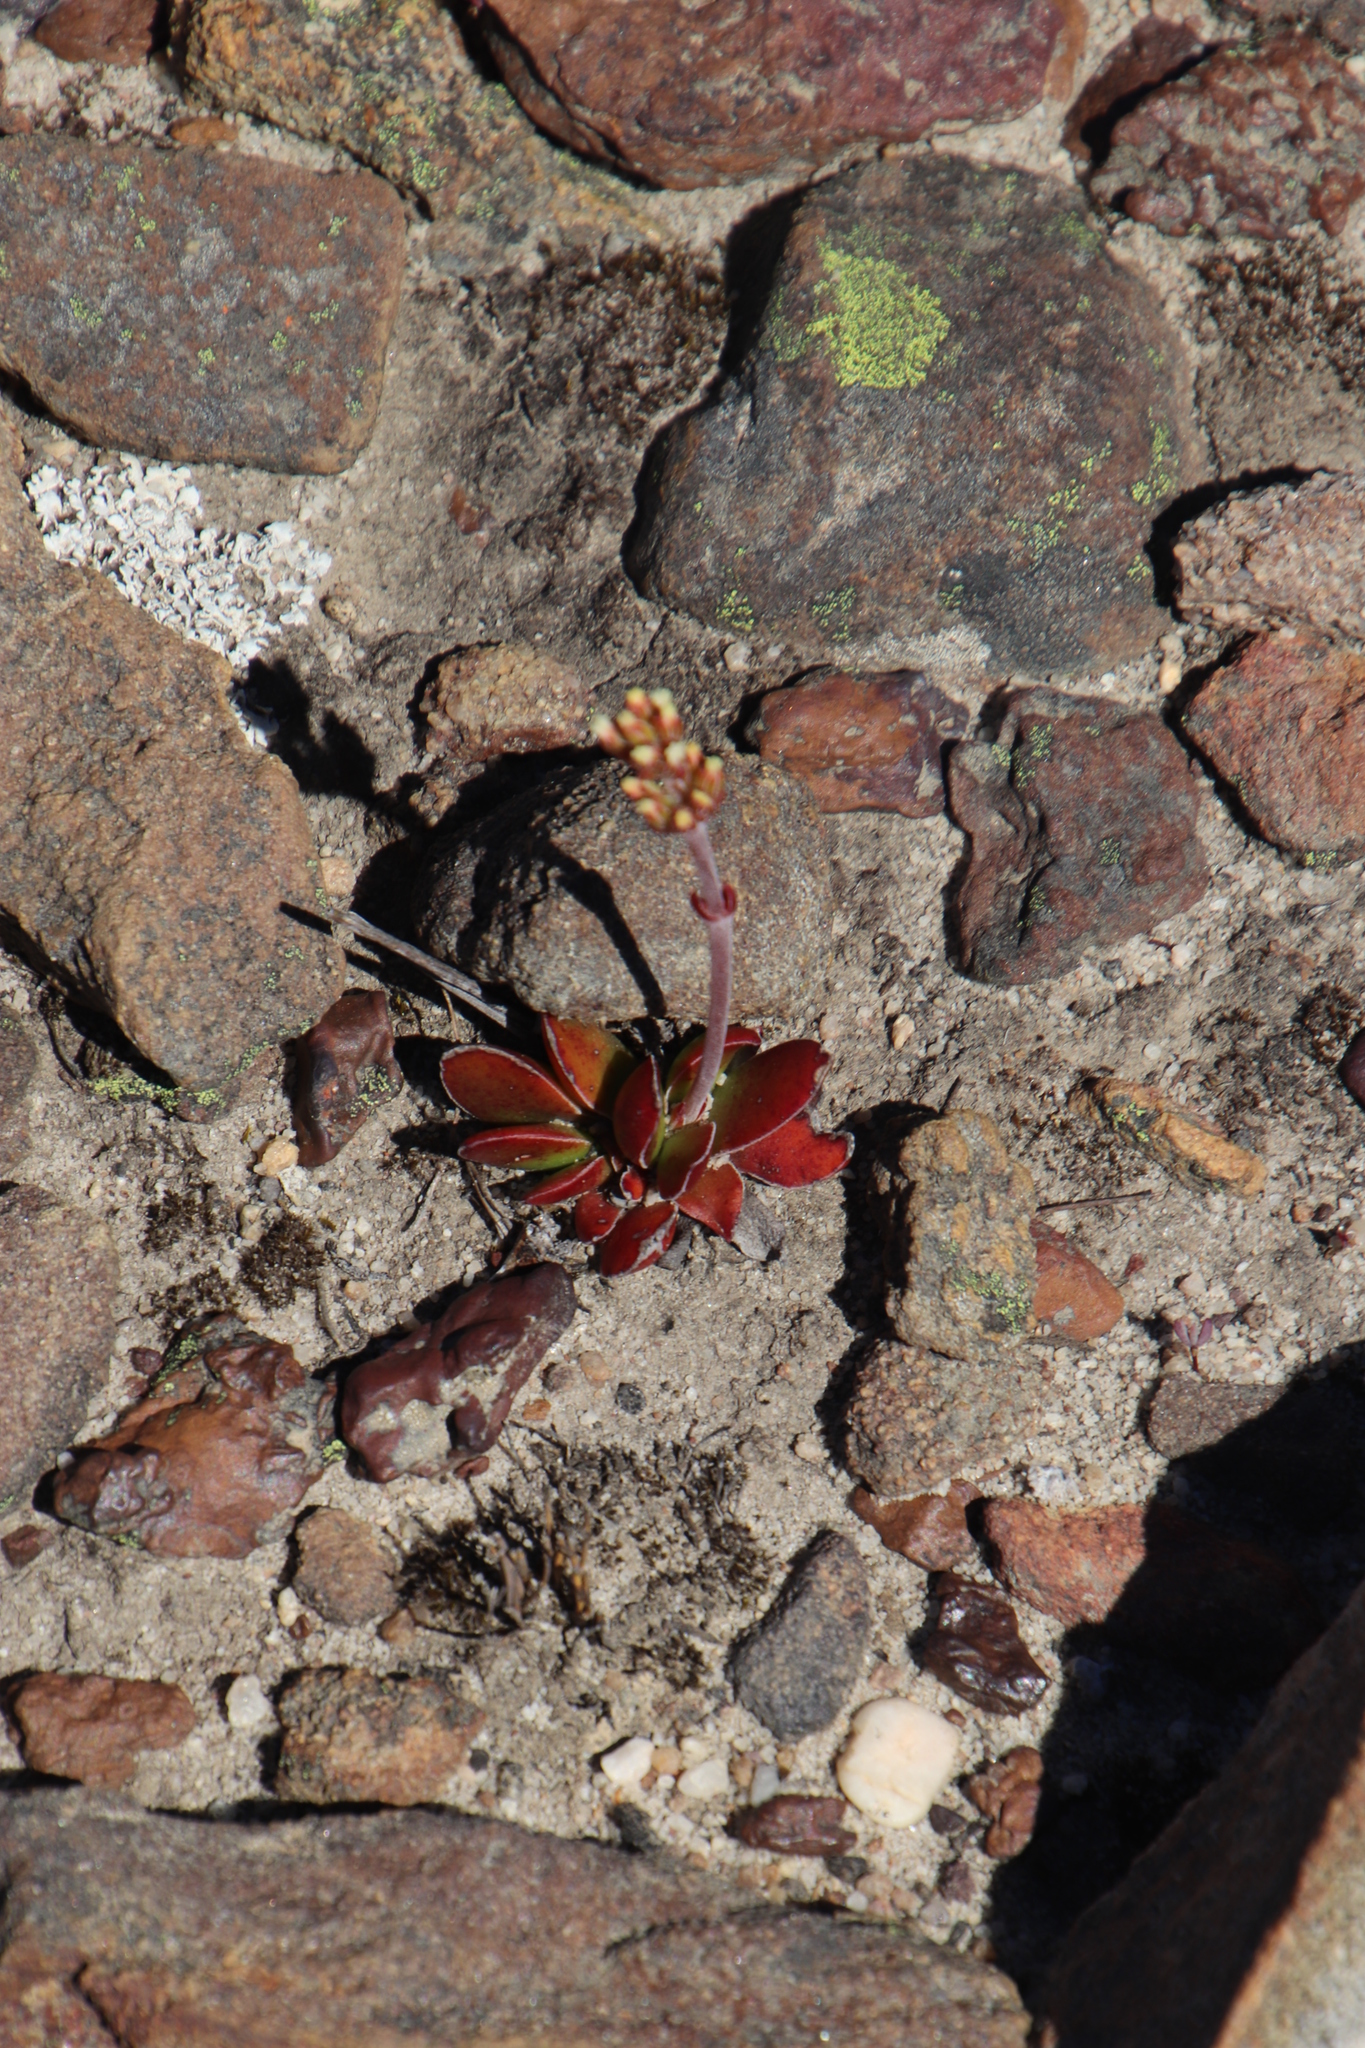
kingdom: Plantae
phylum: Tracheophyta
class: Magnoliopsida
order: Saxifragales
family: Crassulaceae
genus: Crassula
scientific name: Crassula nudicaulis
